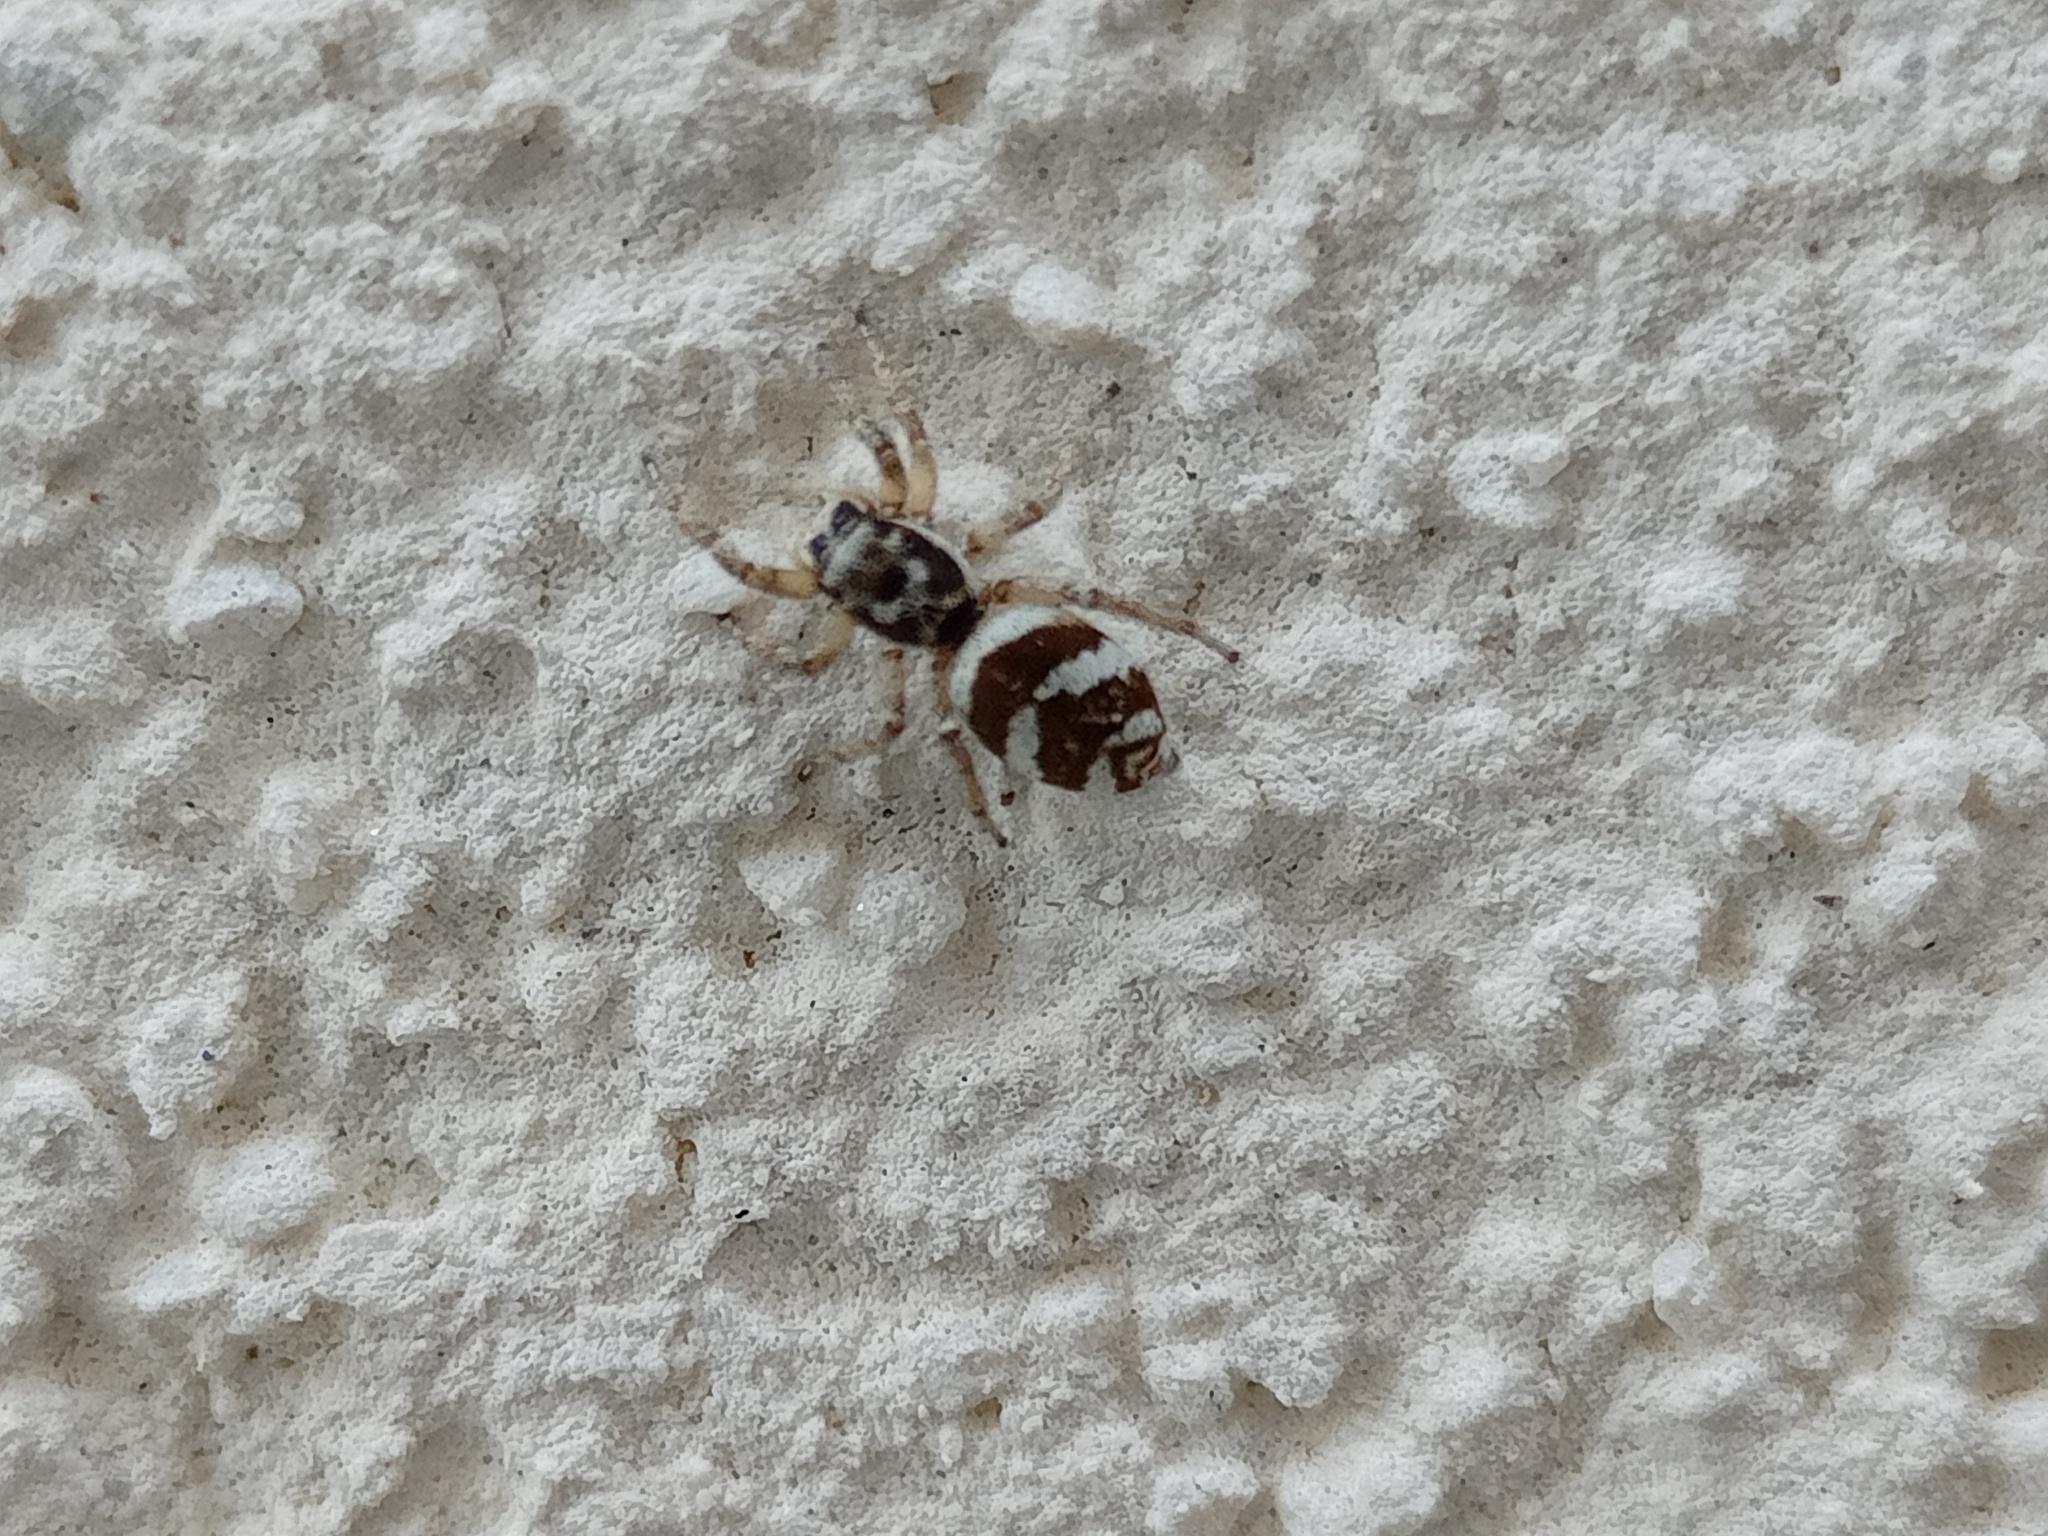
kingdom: Animalia
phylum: Arthropoda
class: Arachnida
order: Araneae
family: Salticidae
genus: Salticus
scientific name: Salticus scenicus
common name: Zebra jumper
